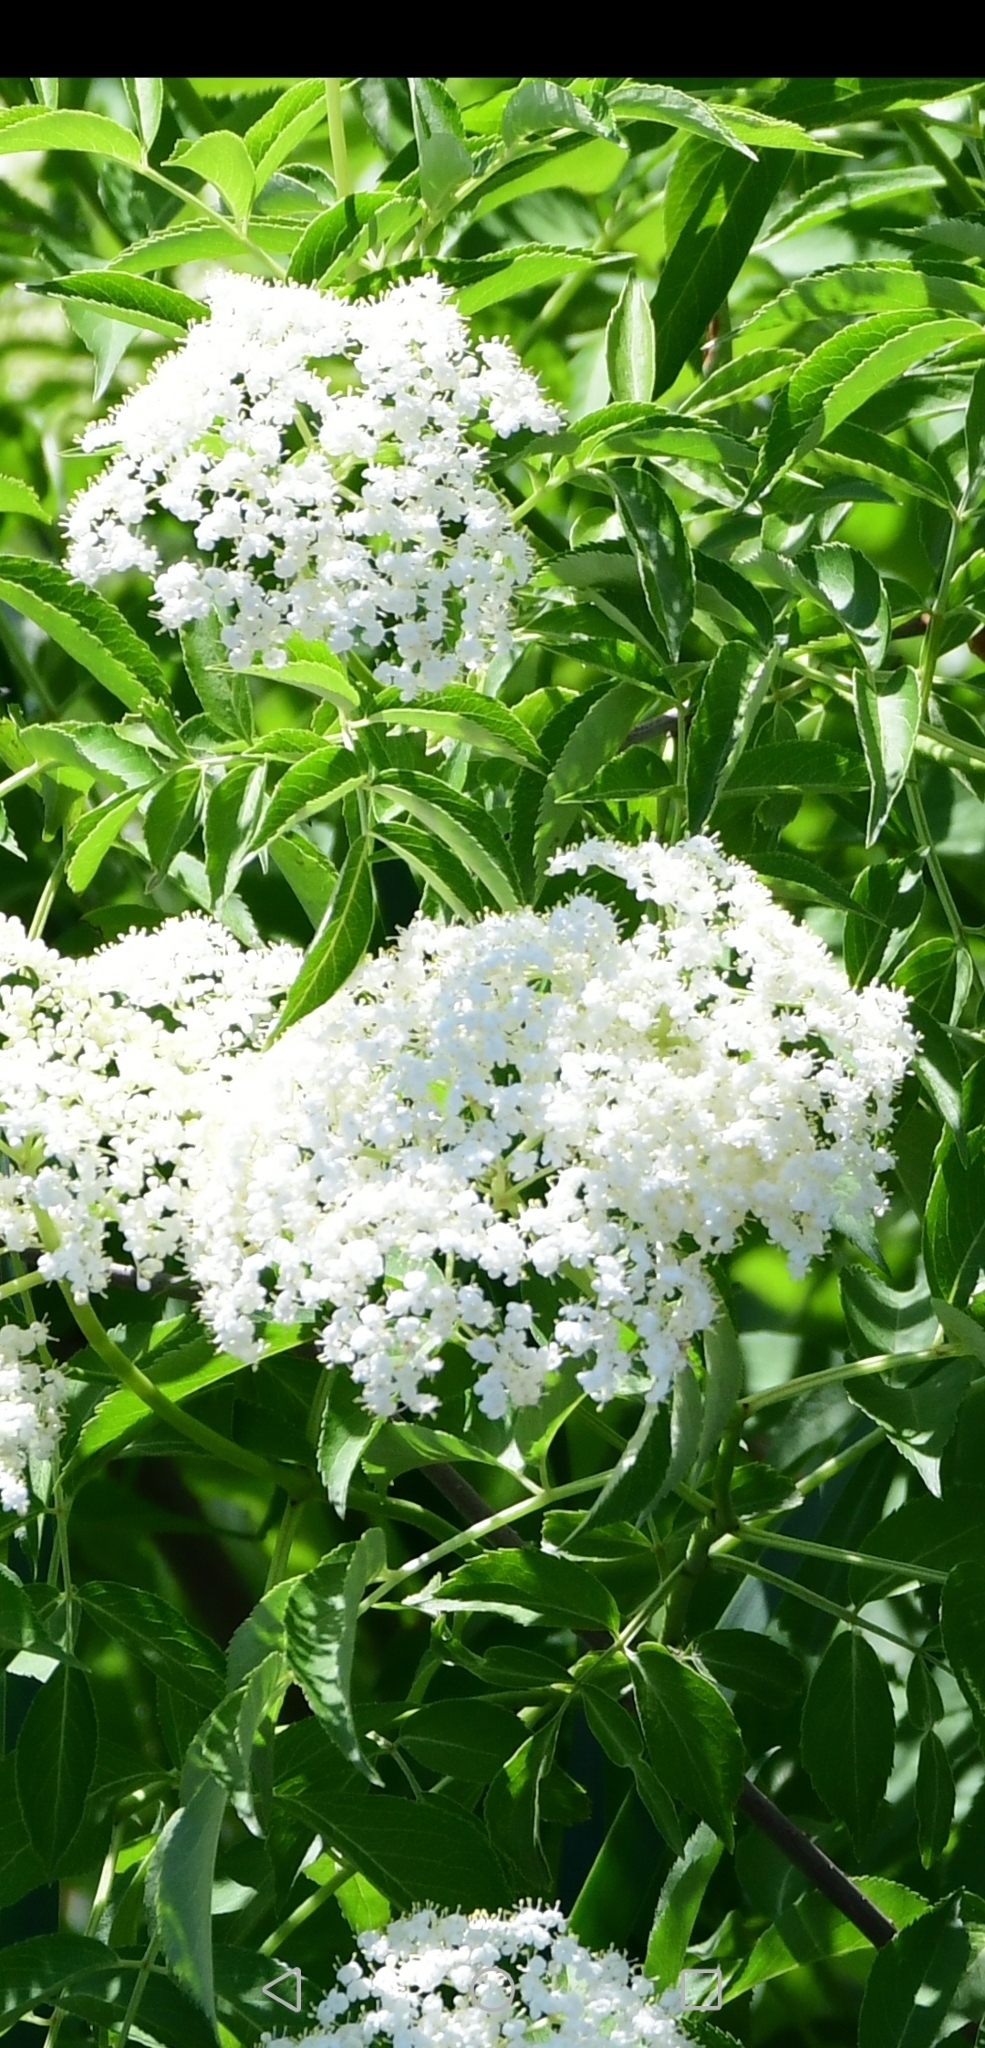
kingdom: Plantae
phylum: Tracheophyta
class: Magnoliopsida
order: Dipsacales
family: Viburnaceae
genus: Sambucus
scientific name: Sambucus canadensis
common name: American elder
